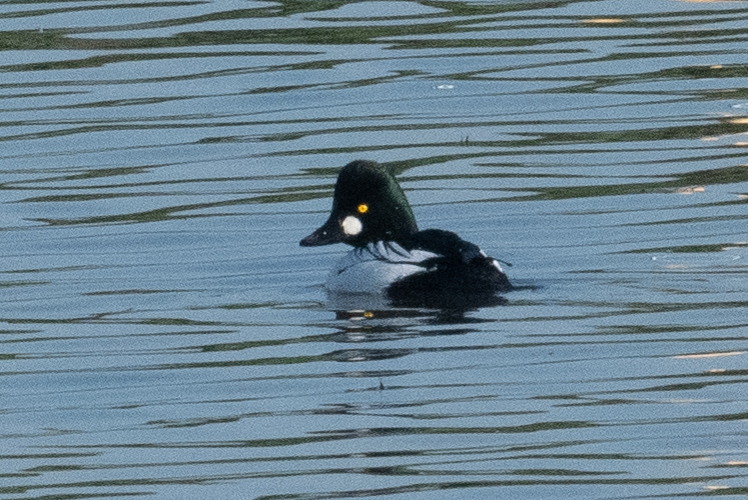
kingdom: Animalia
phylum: Chordata
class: Aves
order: Anseriformes
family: Anatidae
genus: Bucephala
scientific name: Bucephala clangula
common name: Common goldeneye
